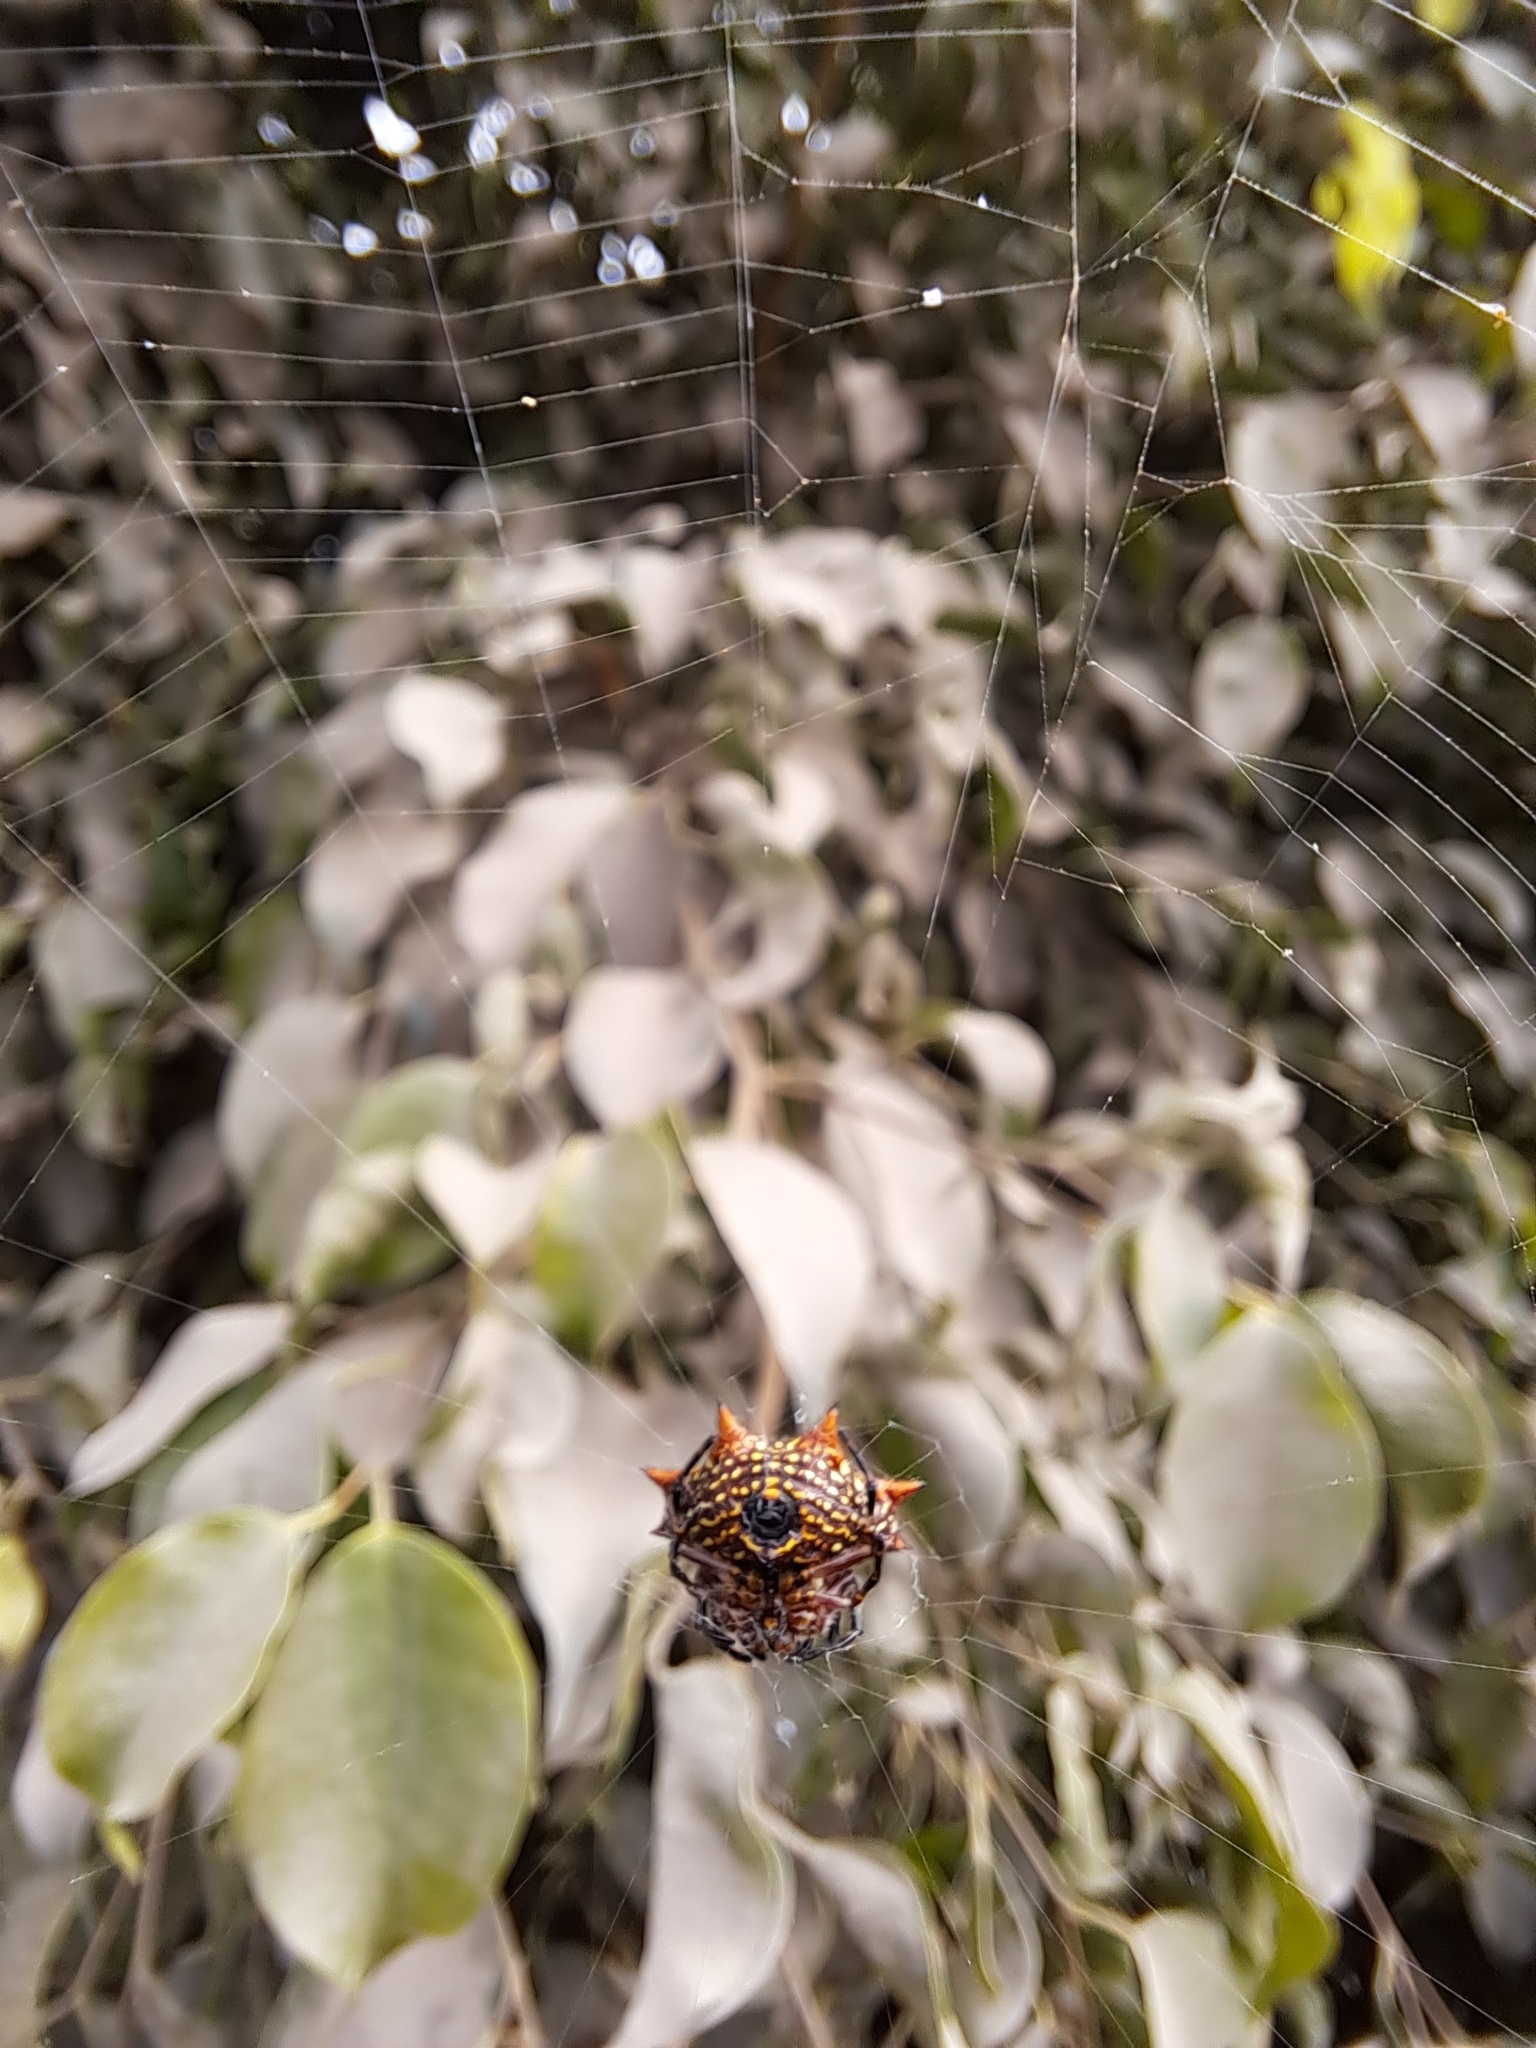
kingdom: Animalia
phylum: Arthropoda
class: Arachnida
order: Araneae
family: Araneidae
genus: Gasteracantha
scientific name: Gasteracantha cancriformis
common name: Orb weavers
